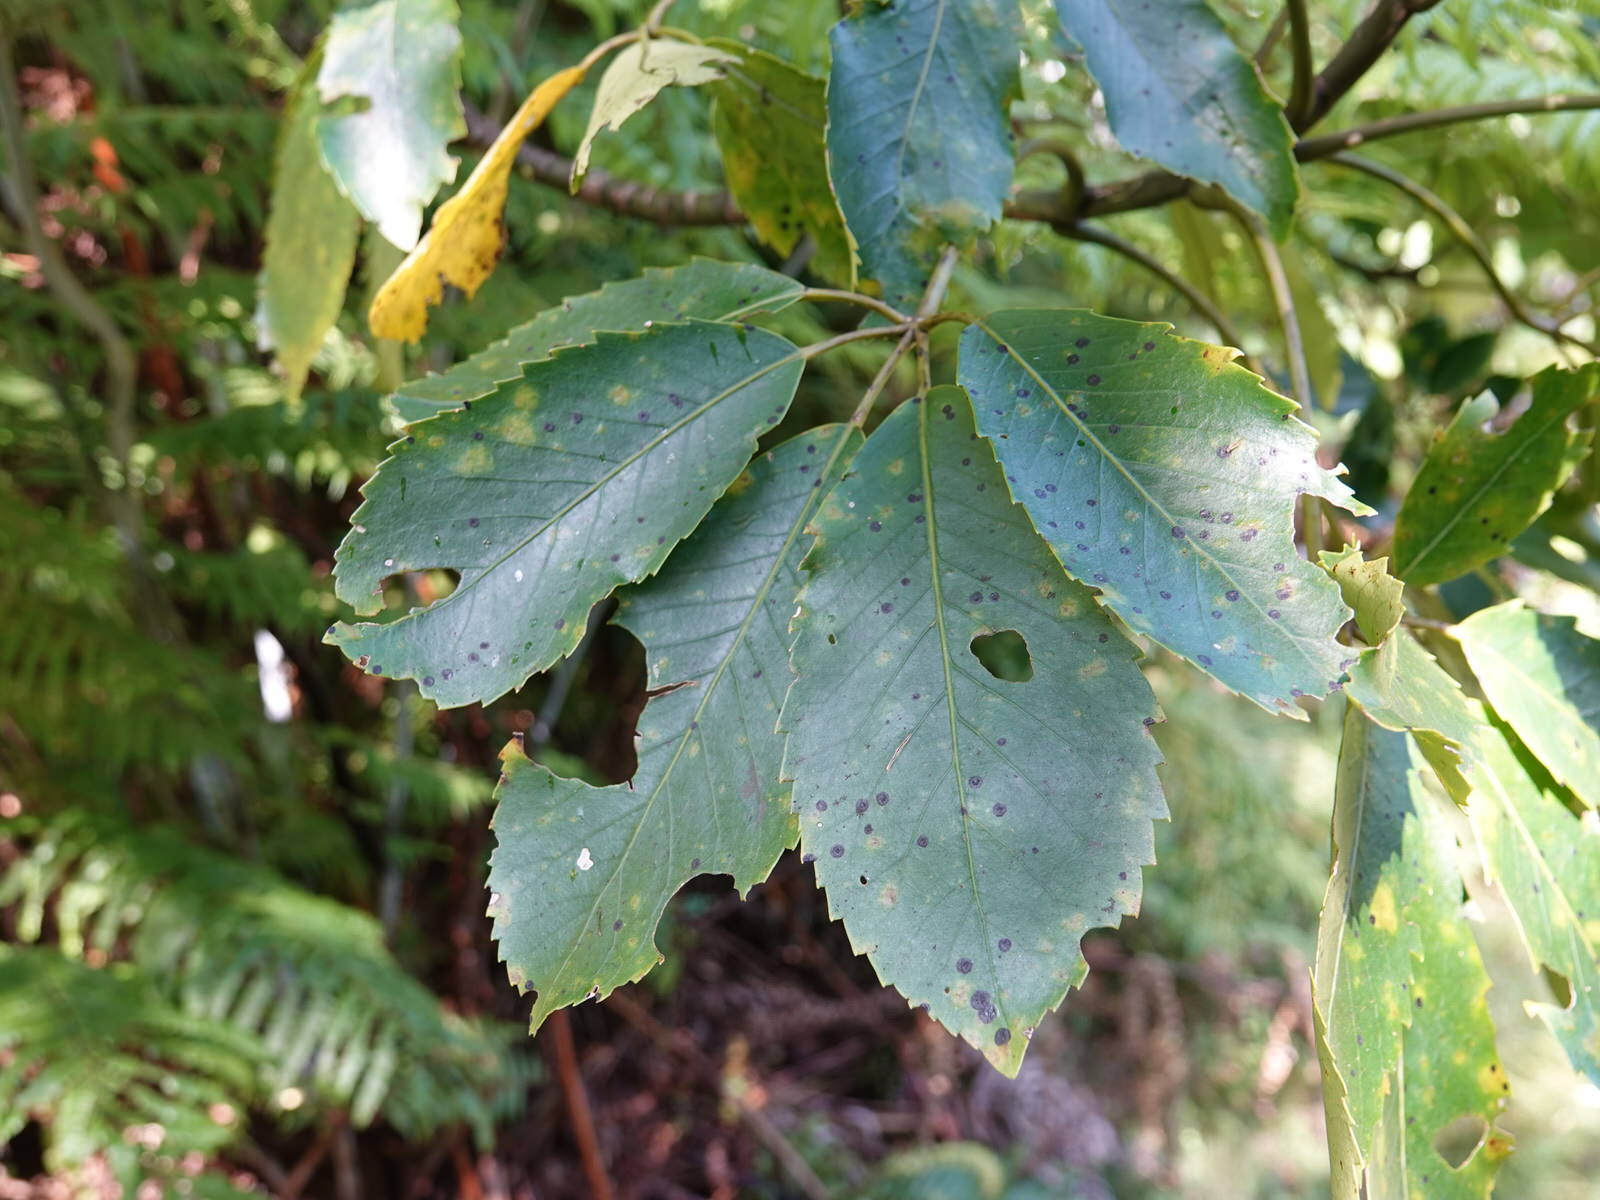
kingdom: Plantae
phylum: Tracheophyta
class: Magnoliopsida
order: Apiales
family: Araliaceae
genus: Neopanax
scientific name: Neopanax arboreus
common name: Five-fingers
